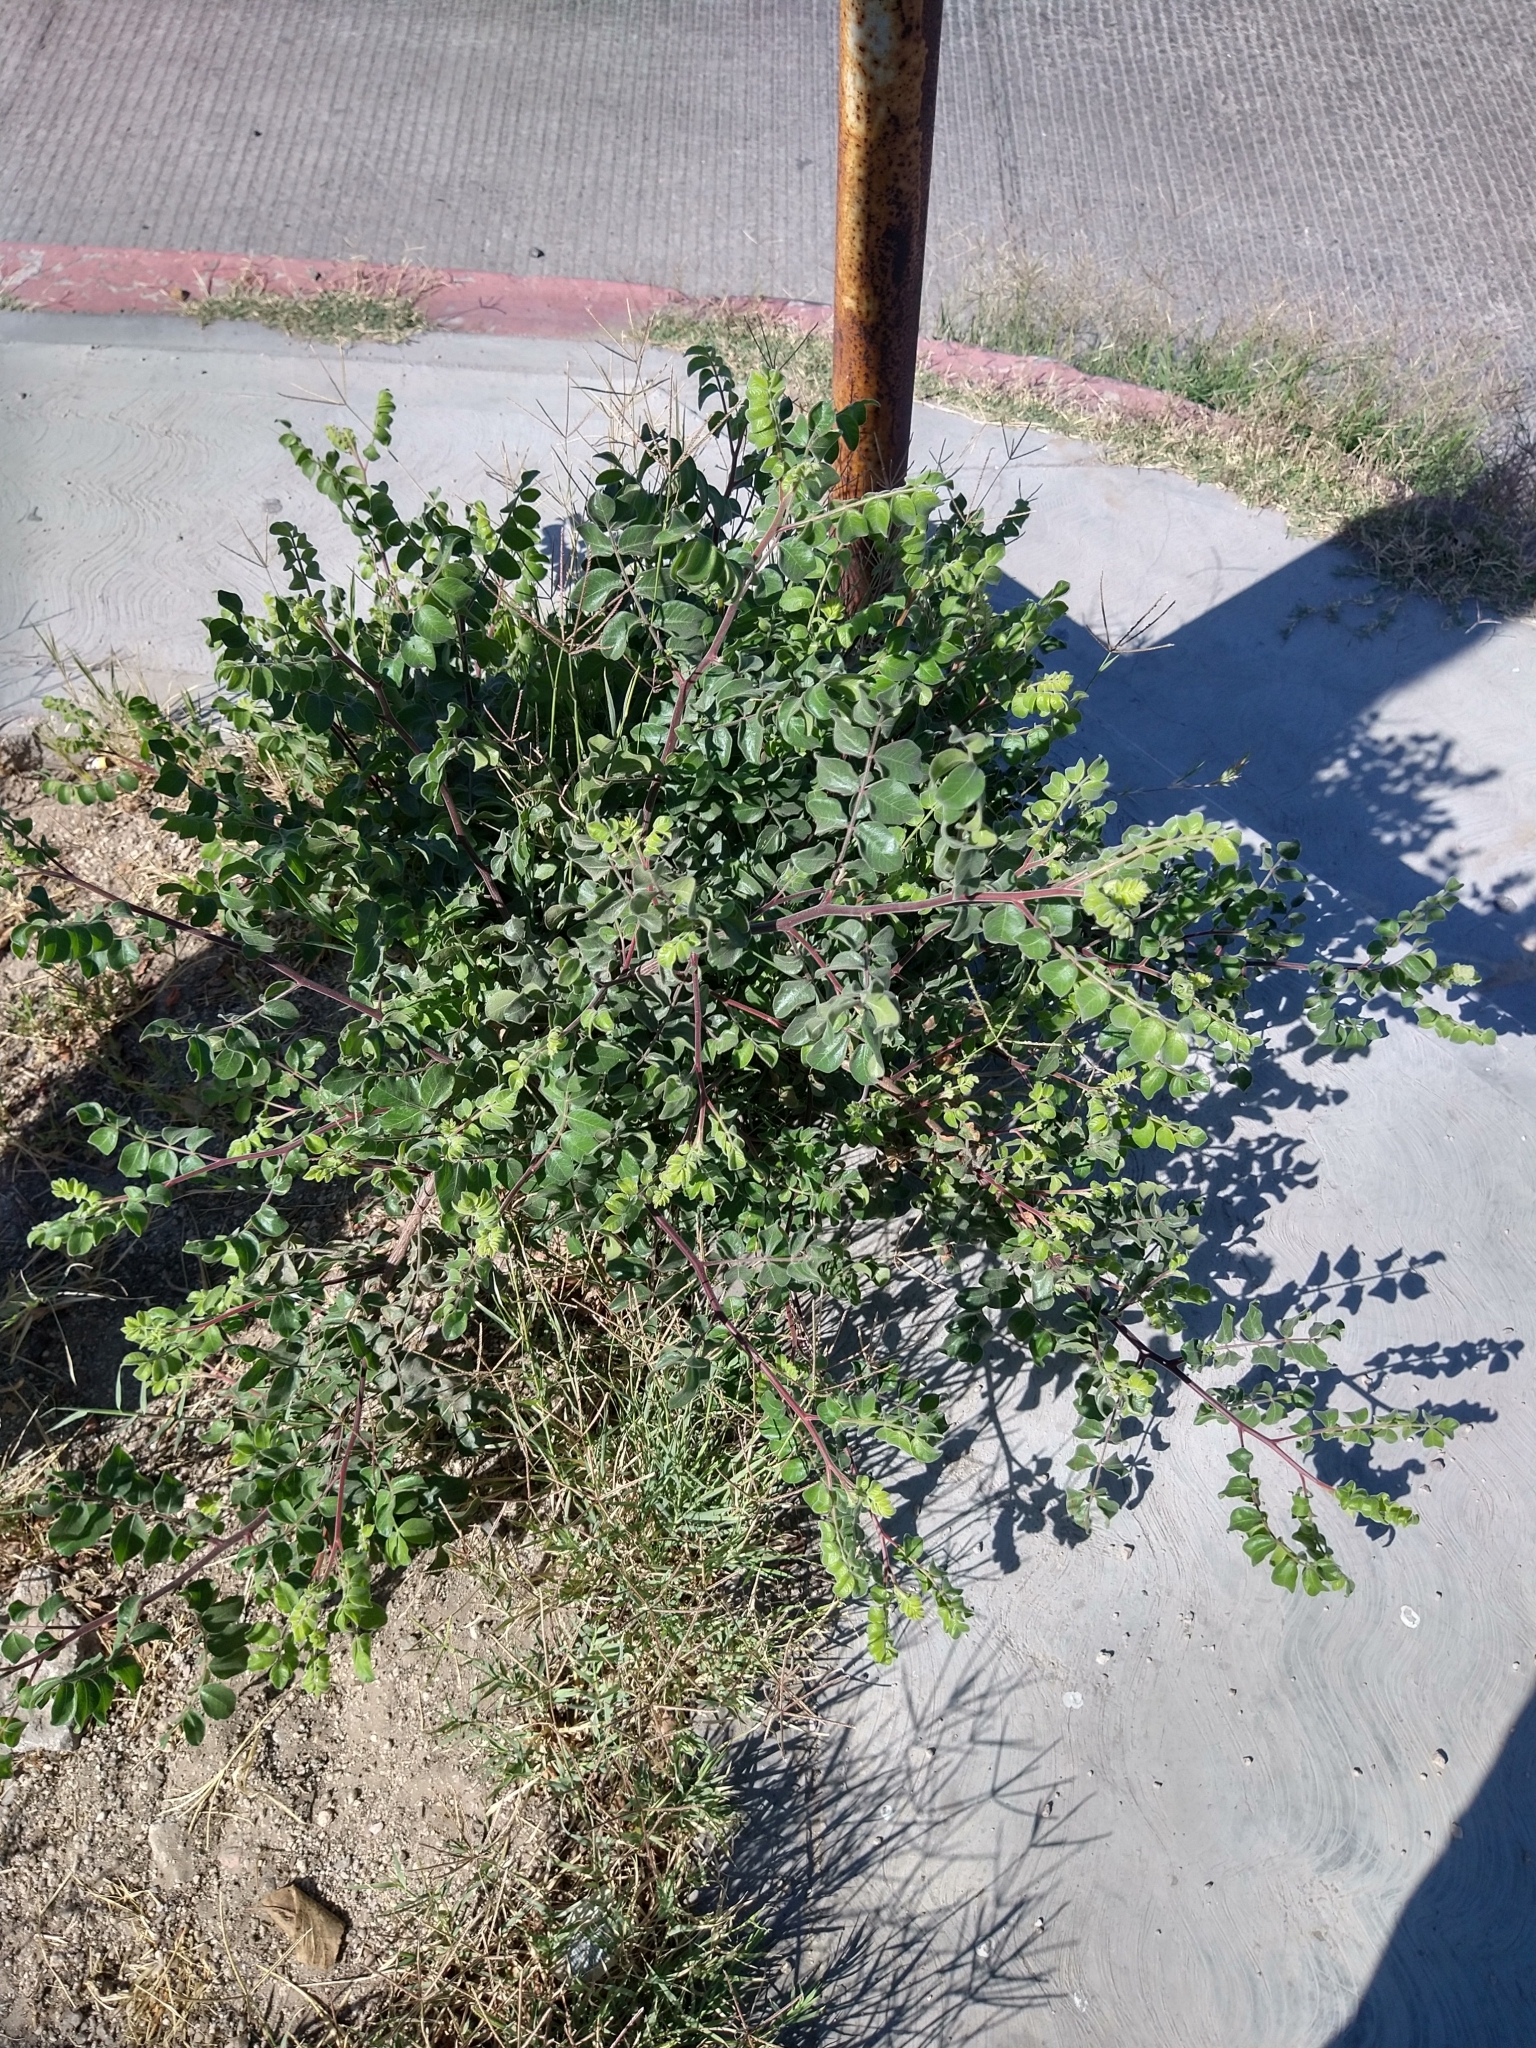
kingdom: Plantae
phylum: Tracheophyta
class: Magnoliopsida
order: Sapindales
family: Anacardiaceae
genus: Cyrtocarpa
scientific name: Cyrtocarpa edulis
